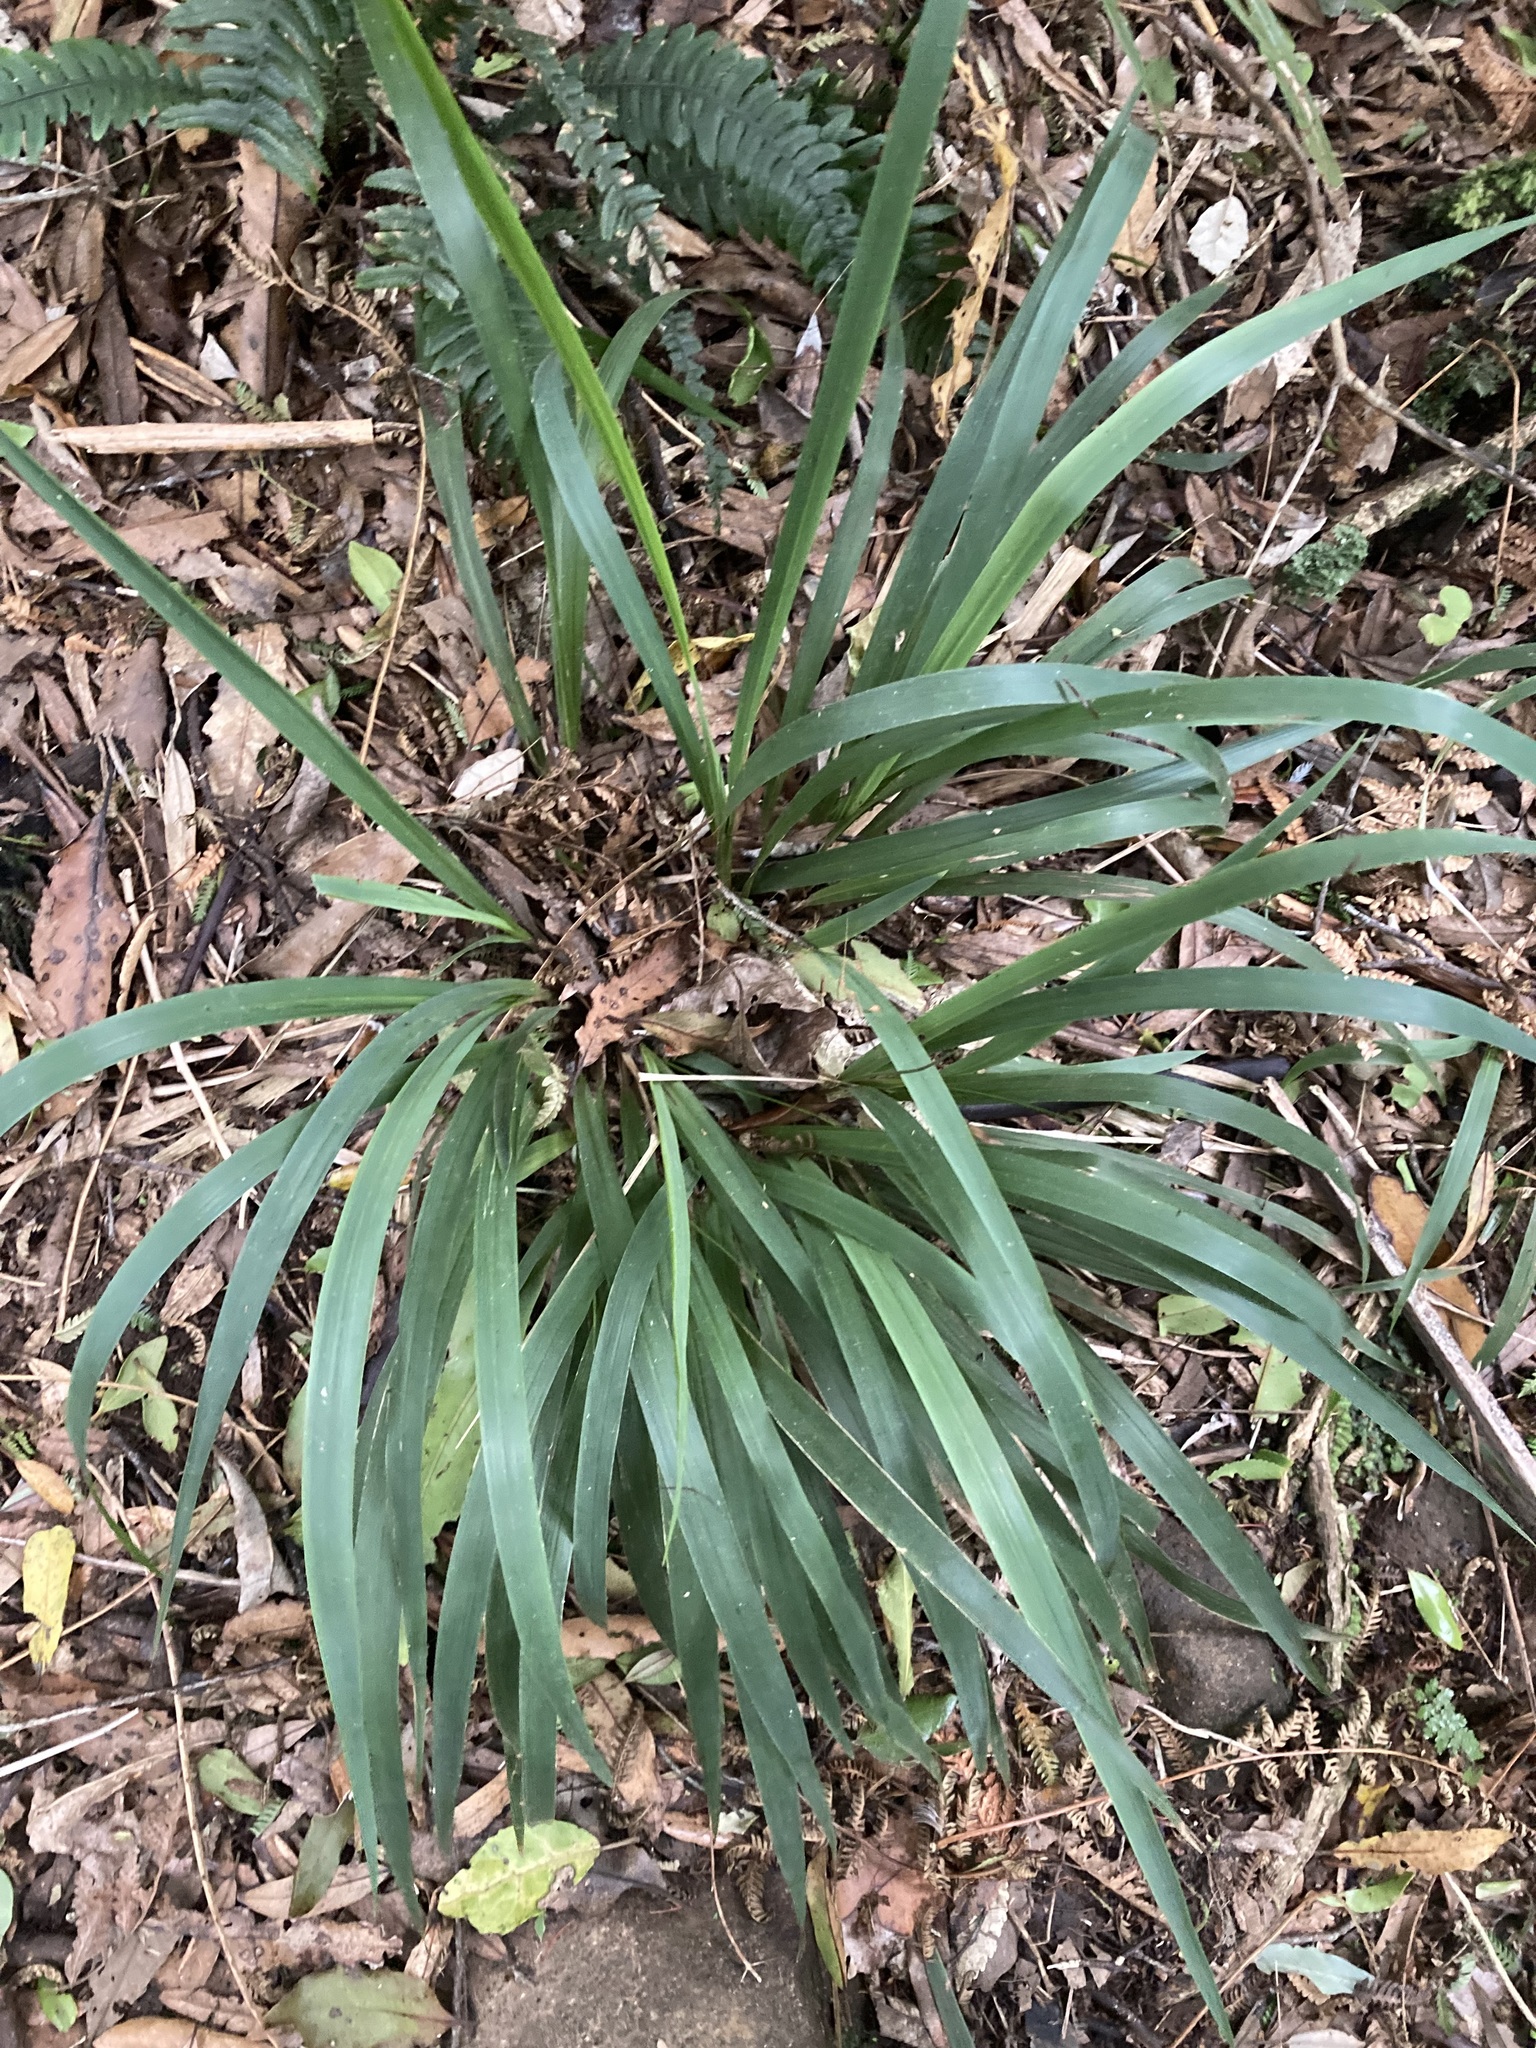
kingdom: Plantae
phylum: Tracheophyta
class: Liliopsida
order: Poales
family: Poaceae
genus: Ehrharta
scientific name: Ehrharta diplax
